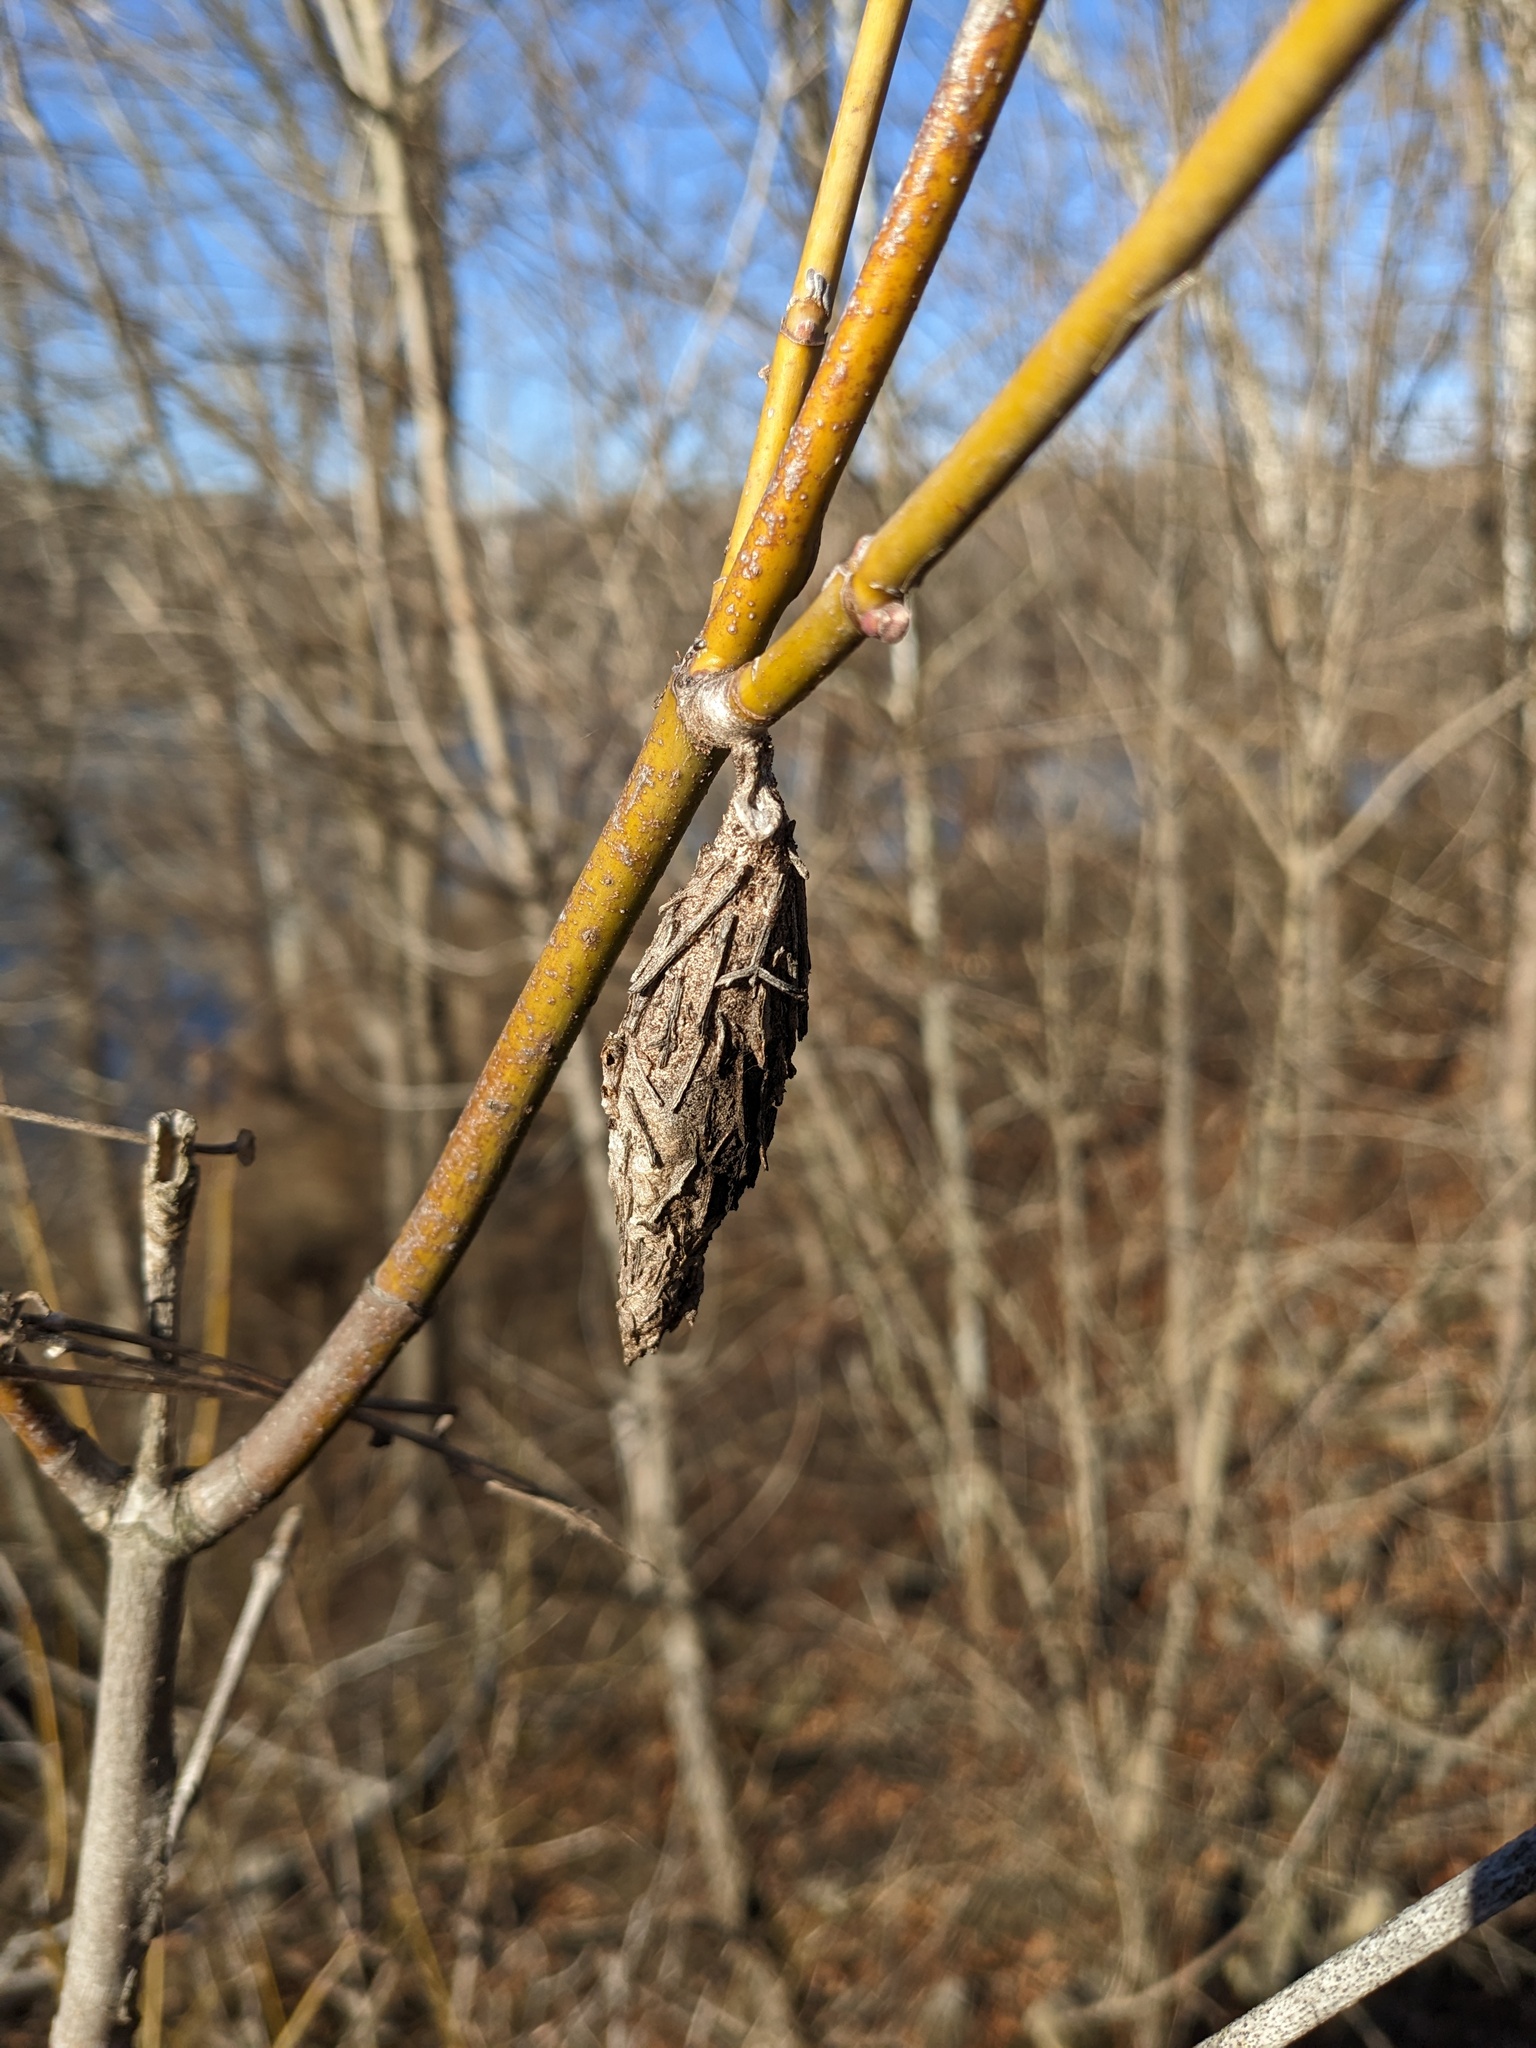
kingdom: Animalia
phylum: Arthropoda
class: Insecta
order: Lepidoptera
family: Psychidae
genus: Thyridopteryx
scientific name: Thyridopteryx ephemeraeformis
